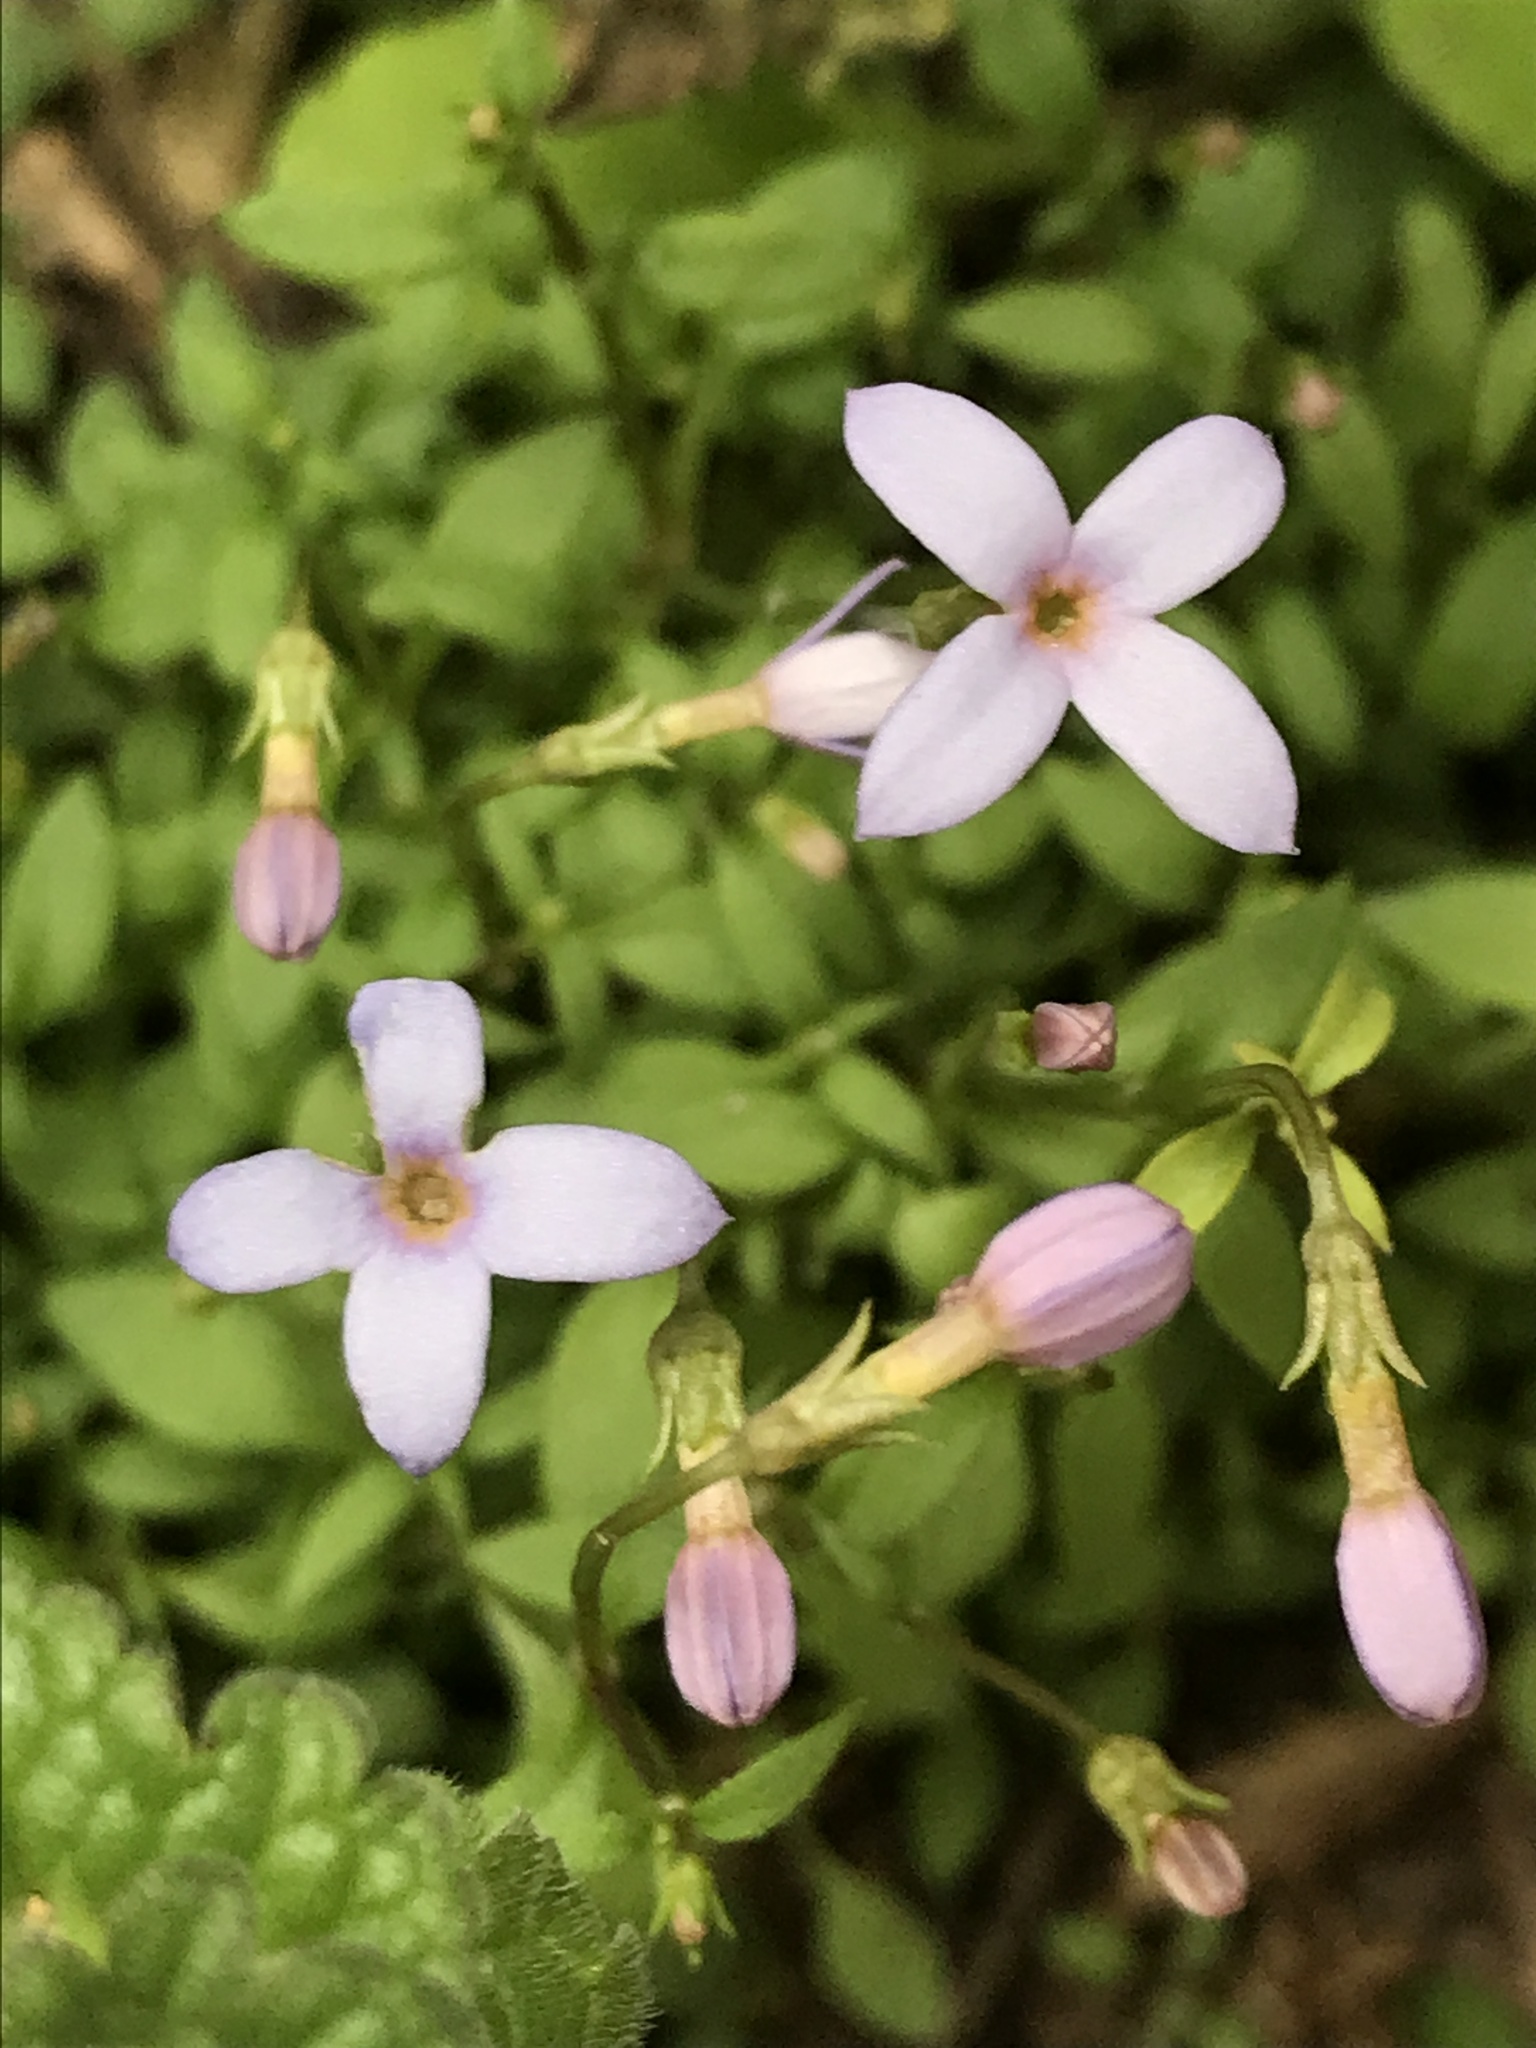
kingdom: Plantae
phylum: Tracheophyta
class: Magnoliopsida
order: Gentianales
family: Rubiaceae
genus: Houstonia
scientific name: Houstonia pusilla
